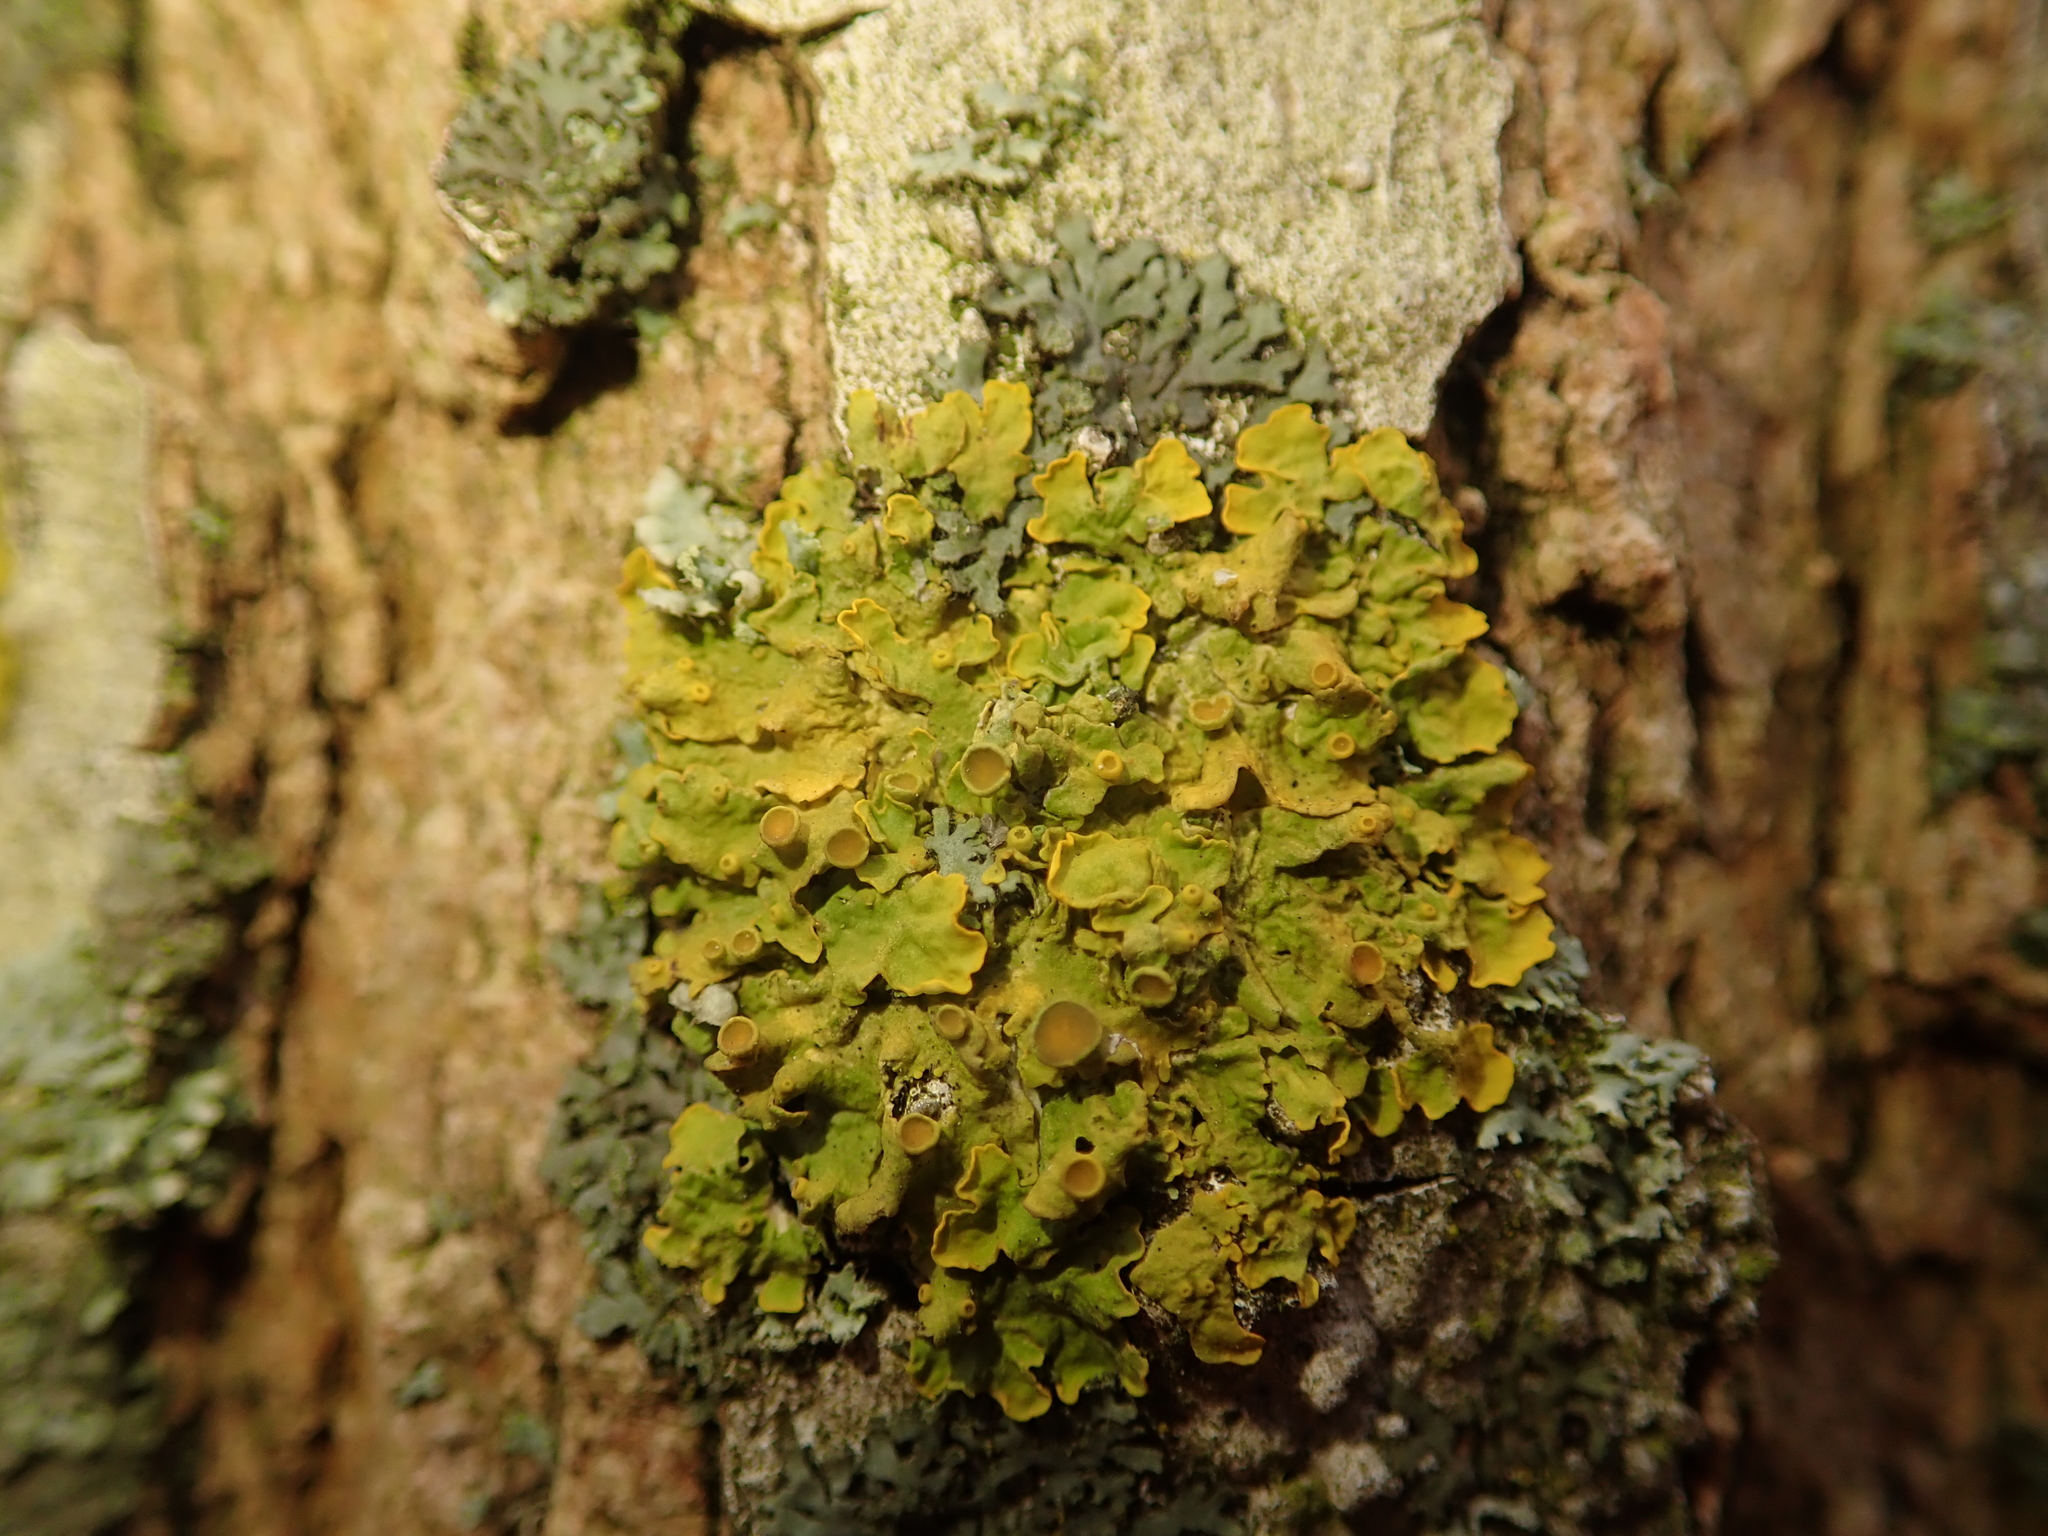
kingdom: Fungi
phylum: Ascomycota
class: Lecanoromycetes
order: Teloschistales
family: Teloschistaceae
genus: Xanthoria
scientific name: Xanthoria parietina
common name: Common orange lichen
